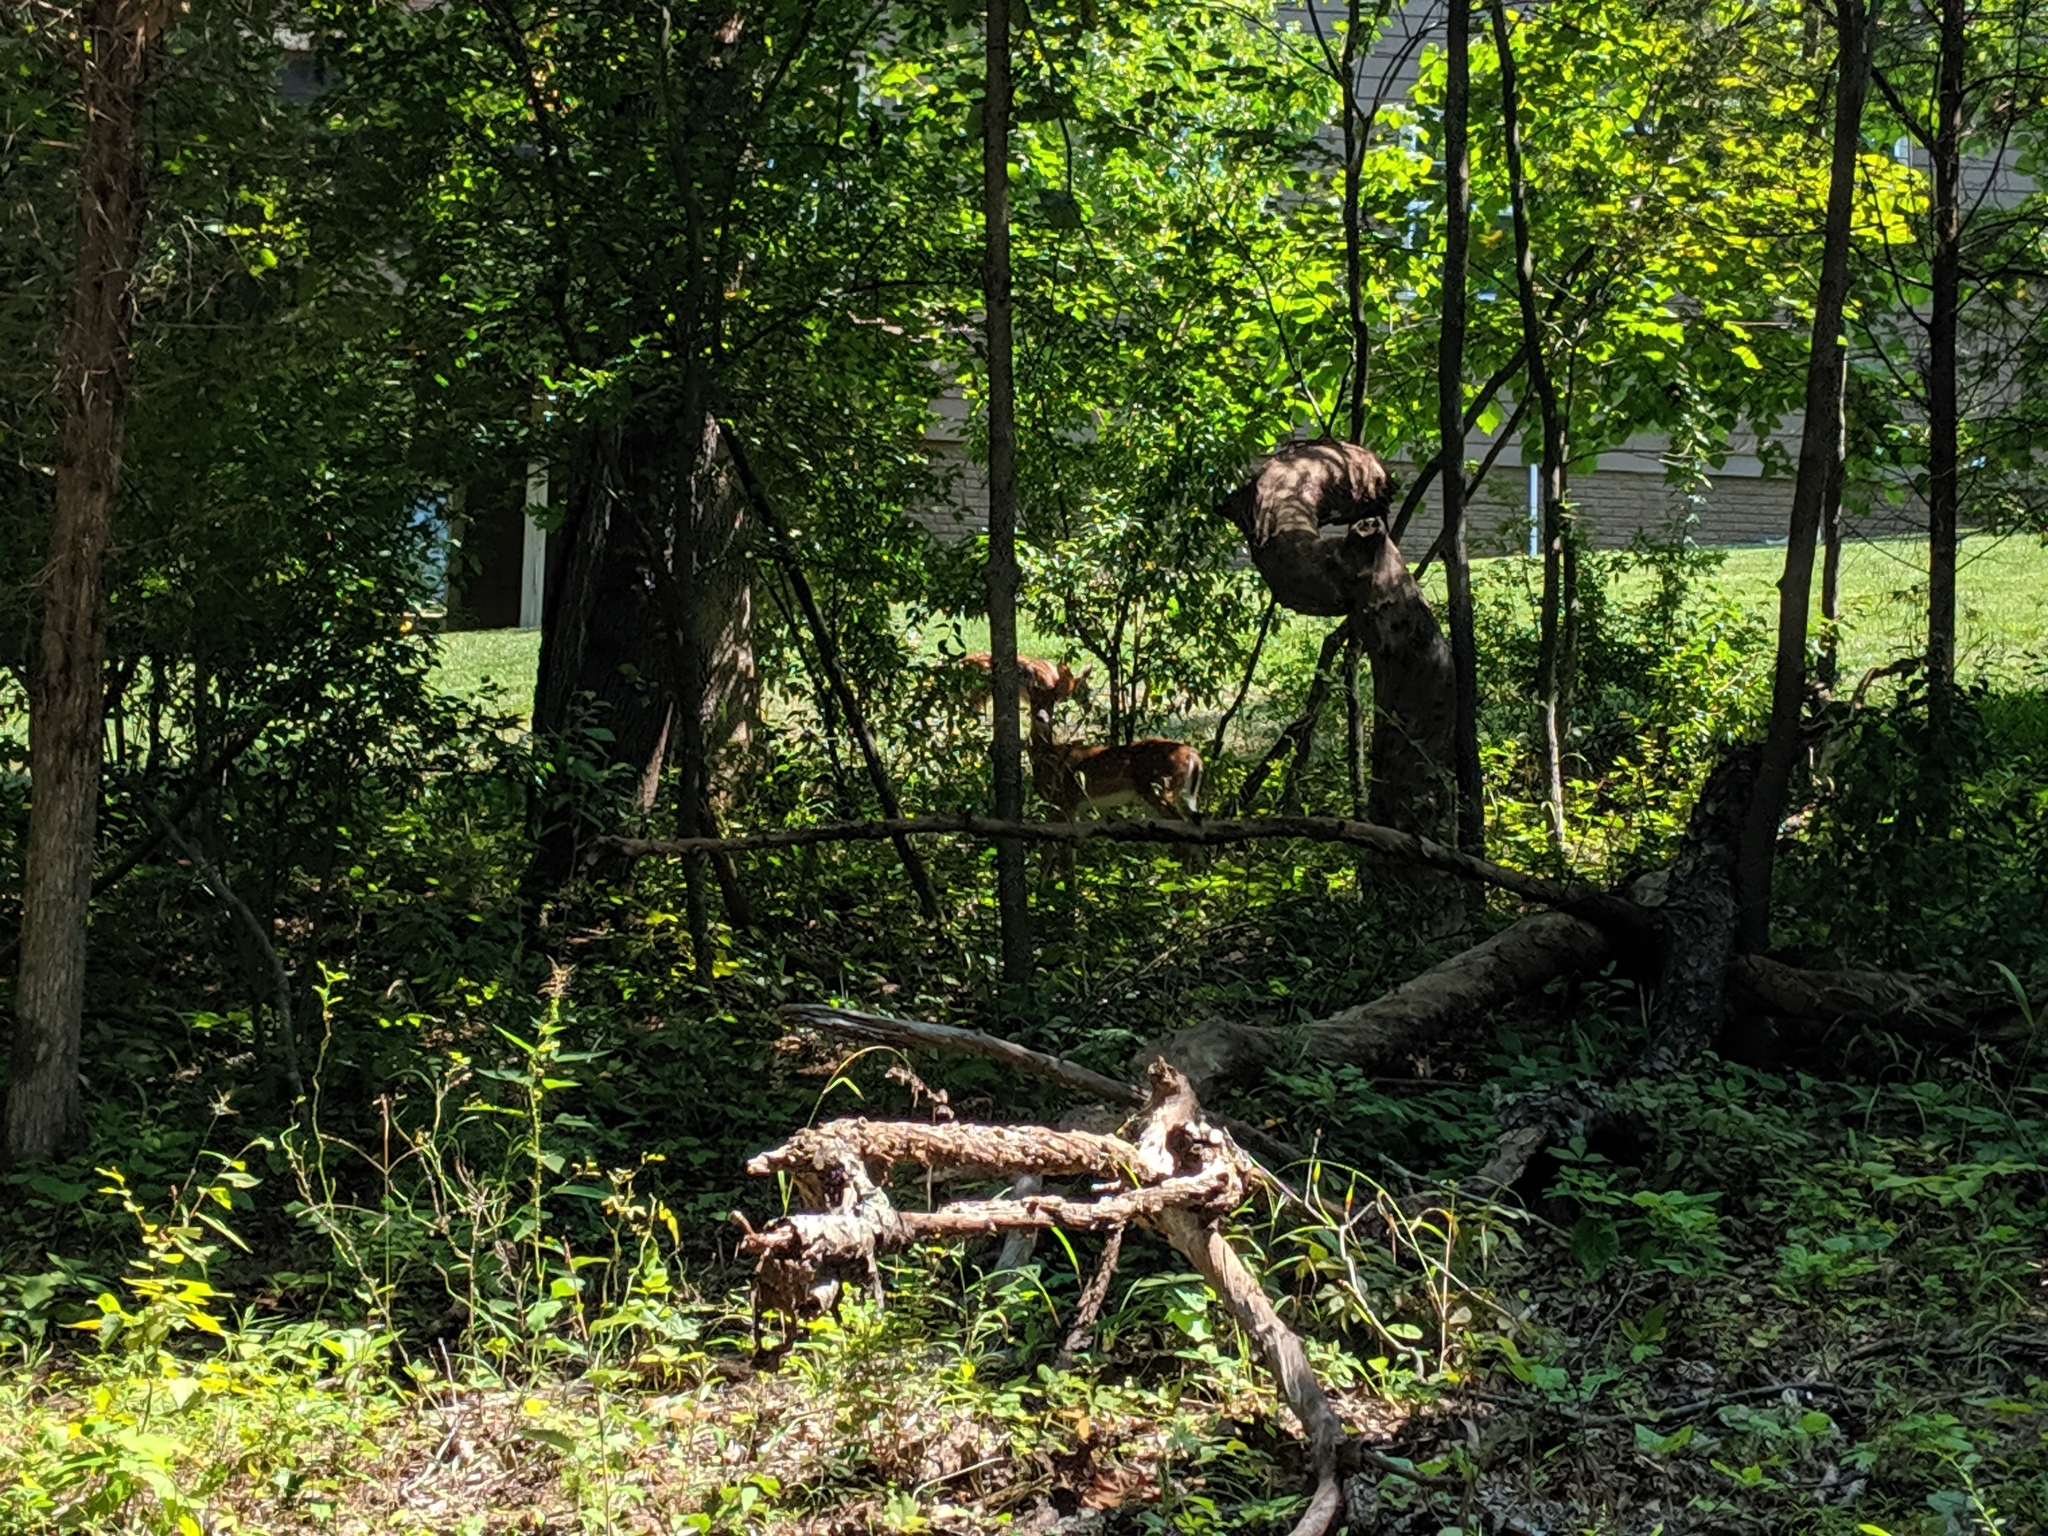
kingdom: Animalia
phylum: Chordata
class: Mammalia
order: Artiodactyla
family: Cervidae
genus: Odocoileus
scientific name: Odocoileus virginianus
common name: White-tailed deer
